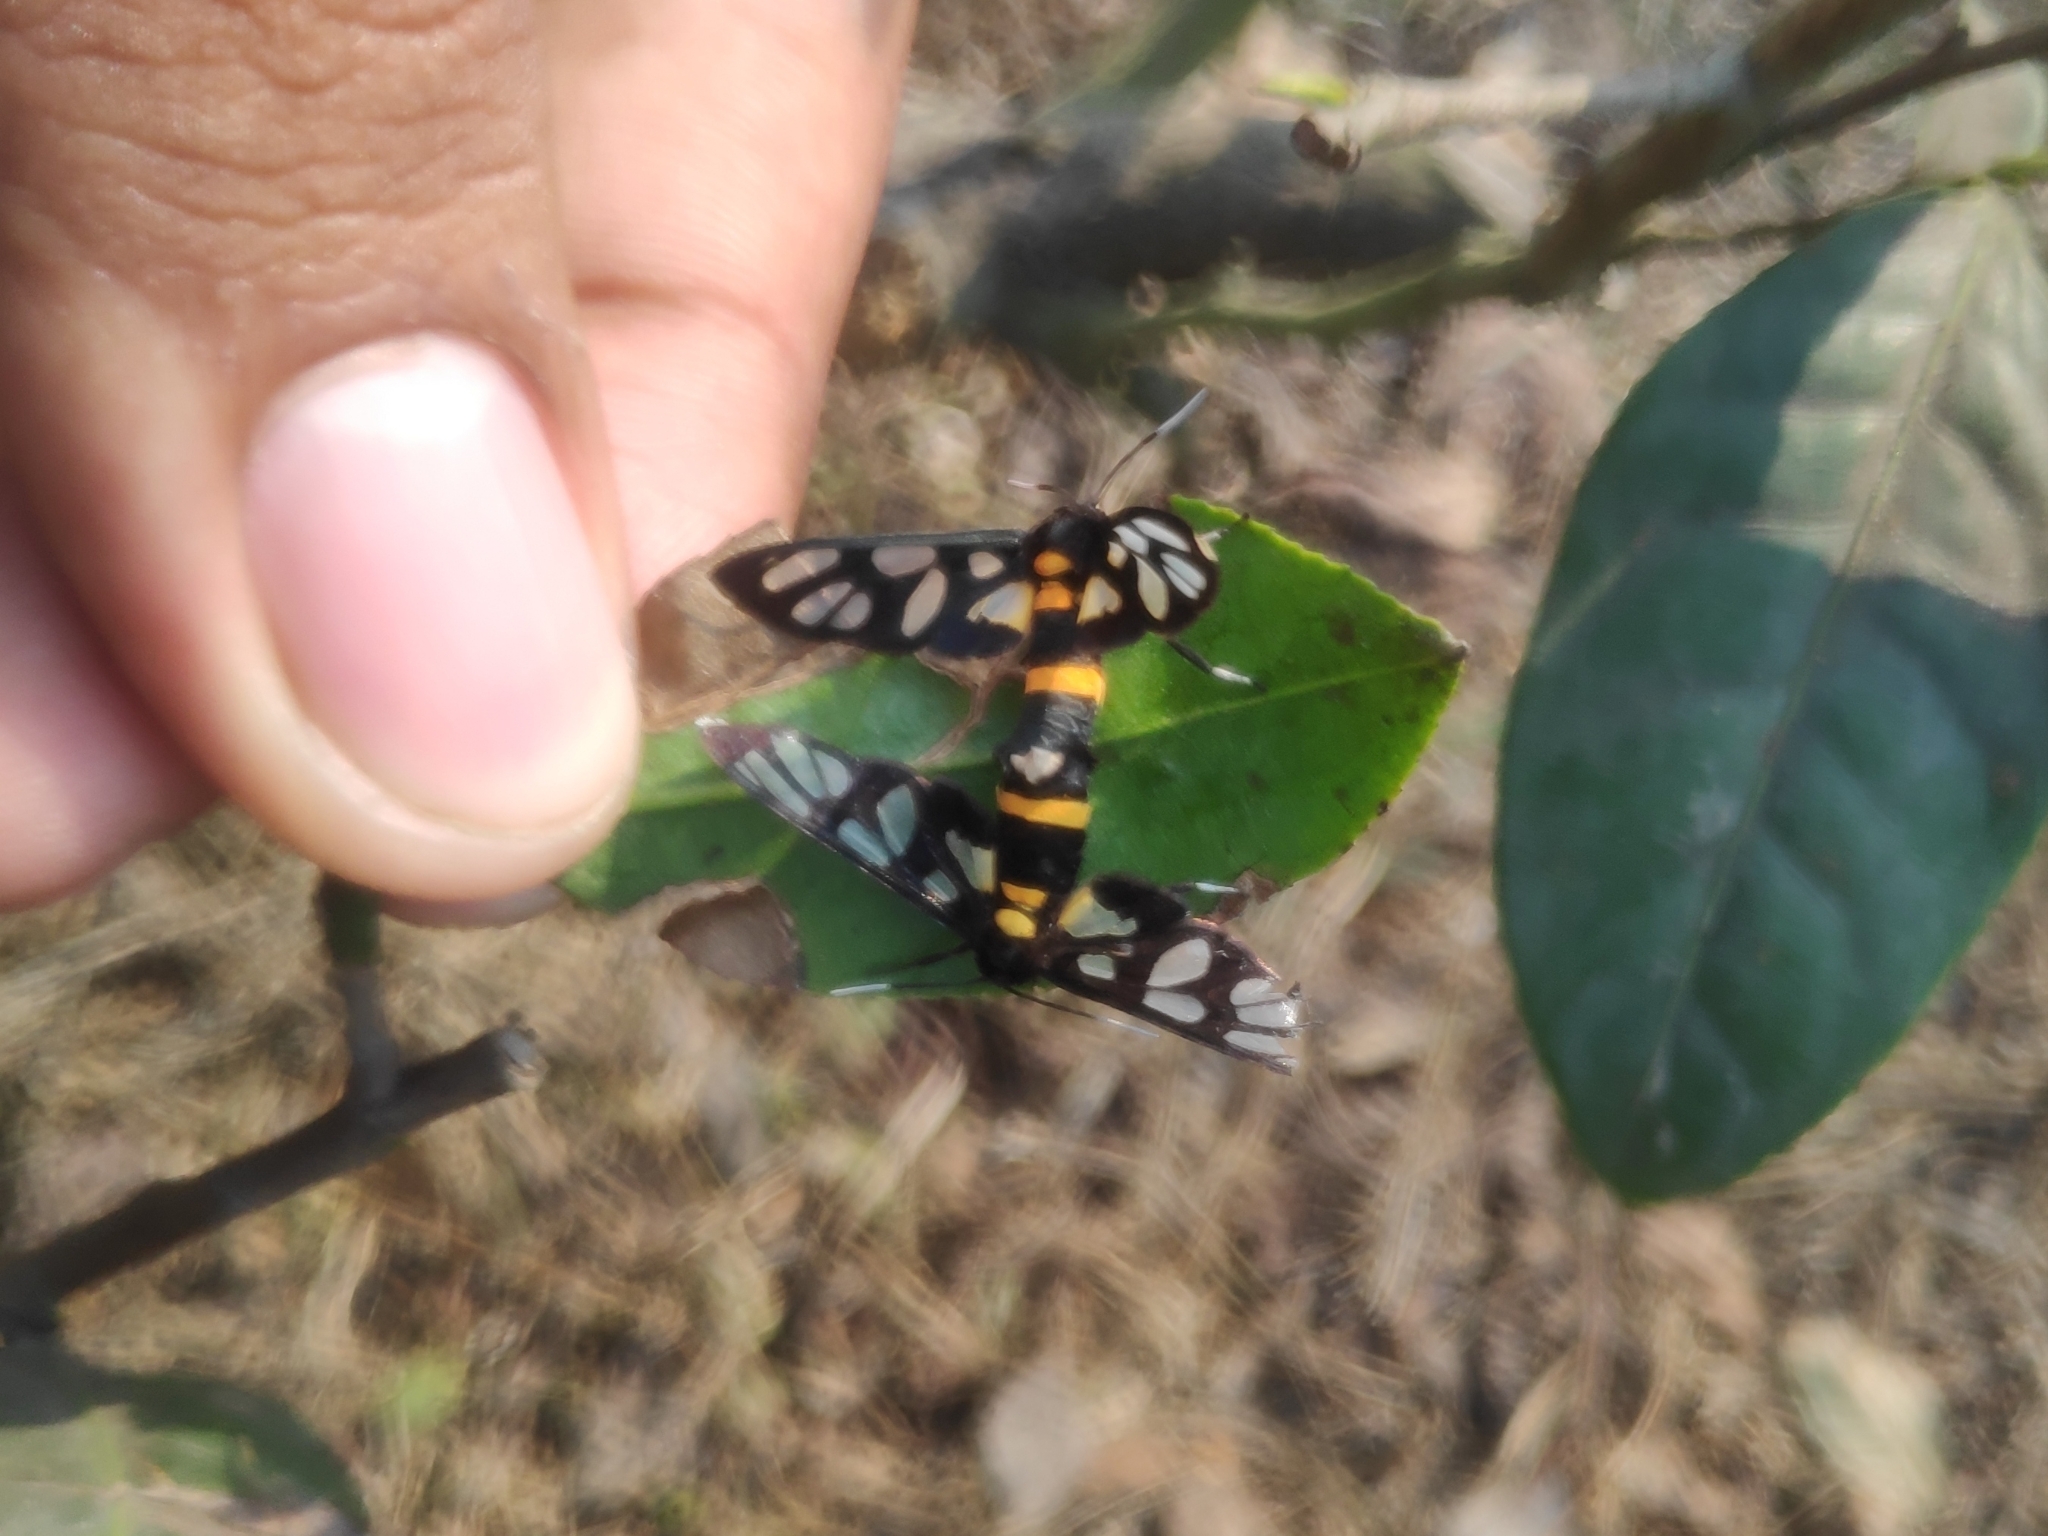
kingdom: Animalia
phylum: Arthropoda
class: Insecta
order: Lepidoptera
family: Erebidae
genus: Amata
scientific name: Amata sperbius
